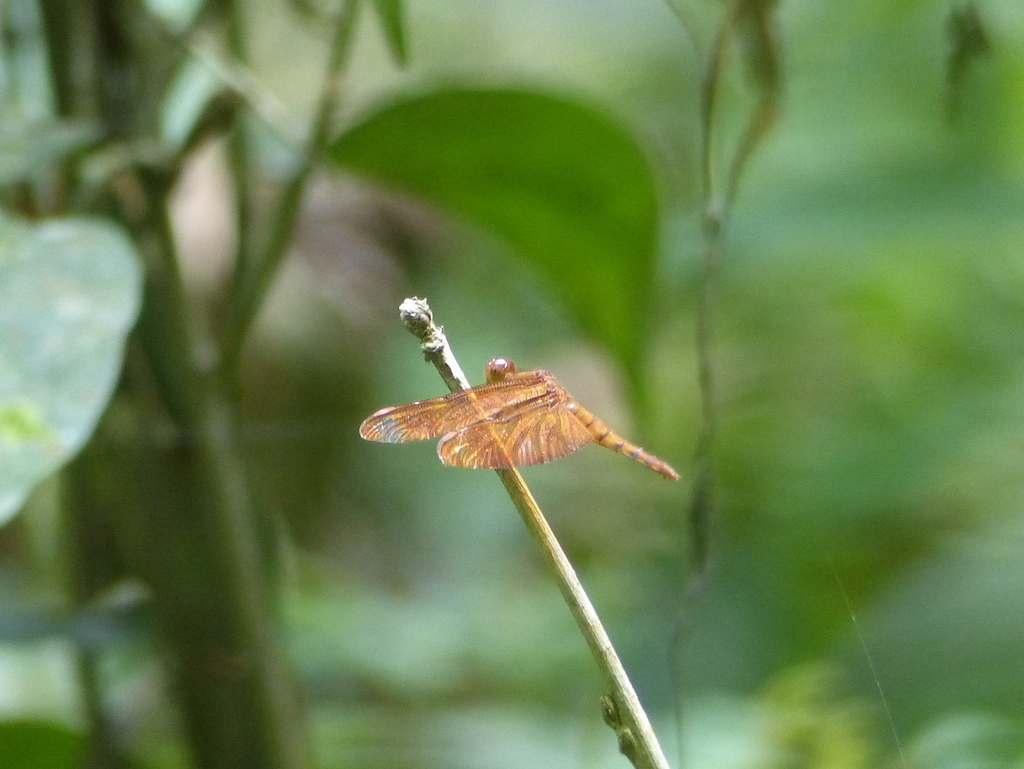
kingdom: Animalia
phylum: Arthropoda
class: Insecta
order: Odonata
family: Libellulidae
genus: Neurothemis
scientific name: Neurothemis fulvia
